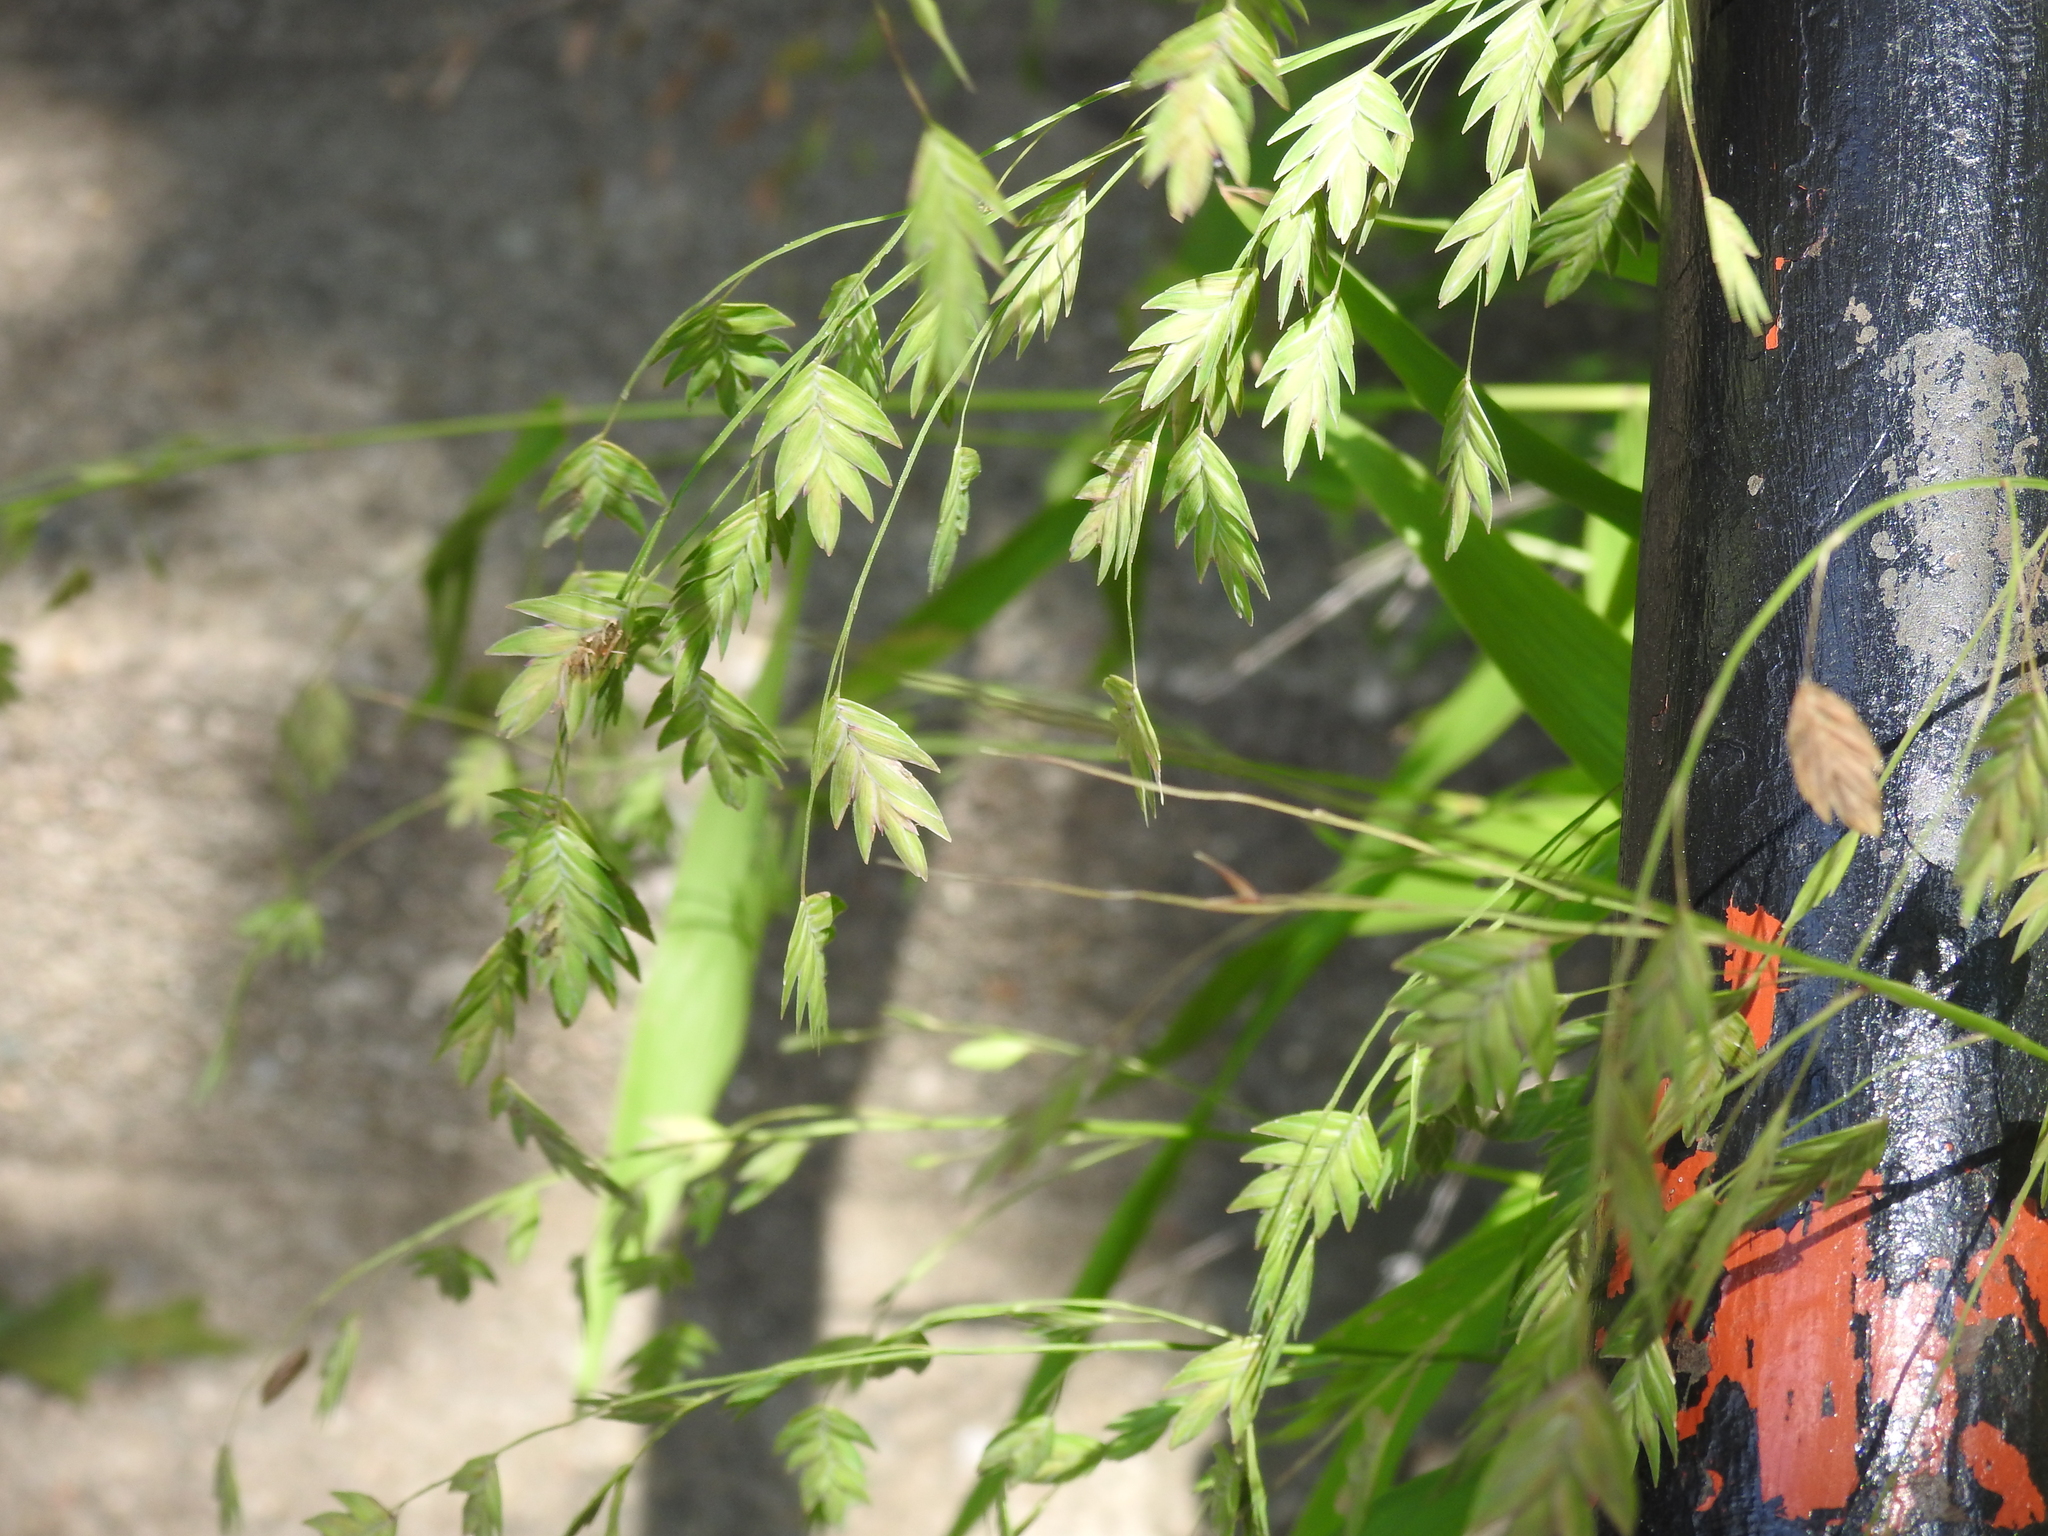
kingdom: Plantae
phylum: Tracheophyta
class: Liliopsida
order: Poales
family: Poaceae
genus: Chasmanthium
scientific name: Chasmanthium latifolium
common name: Broad-leaved chasmanthium
